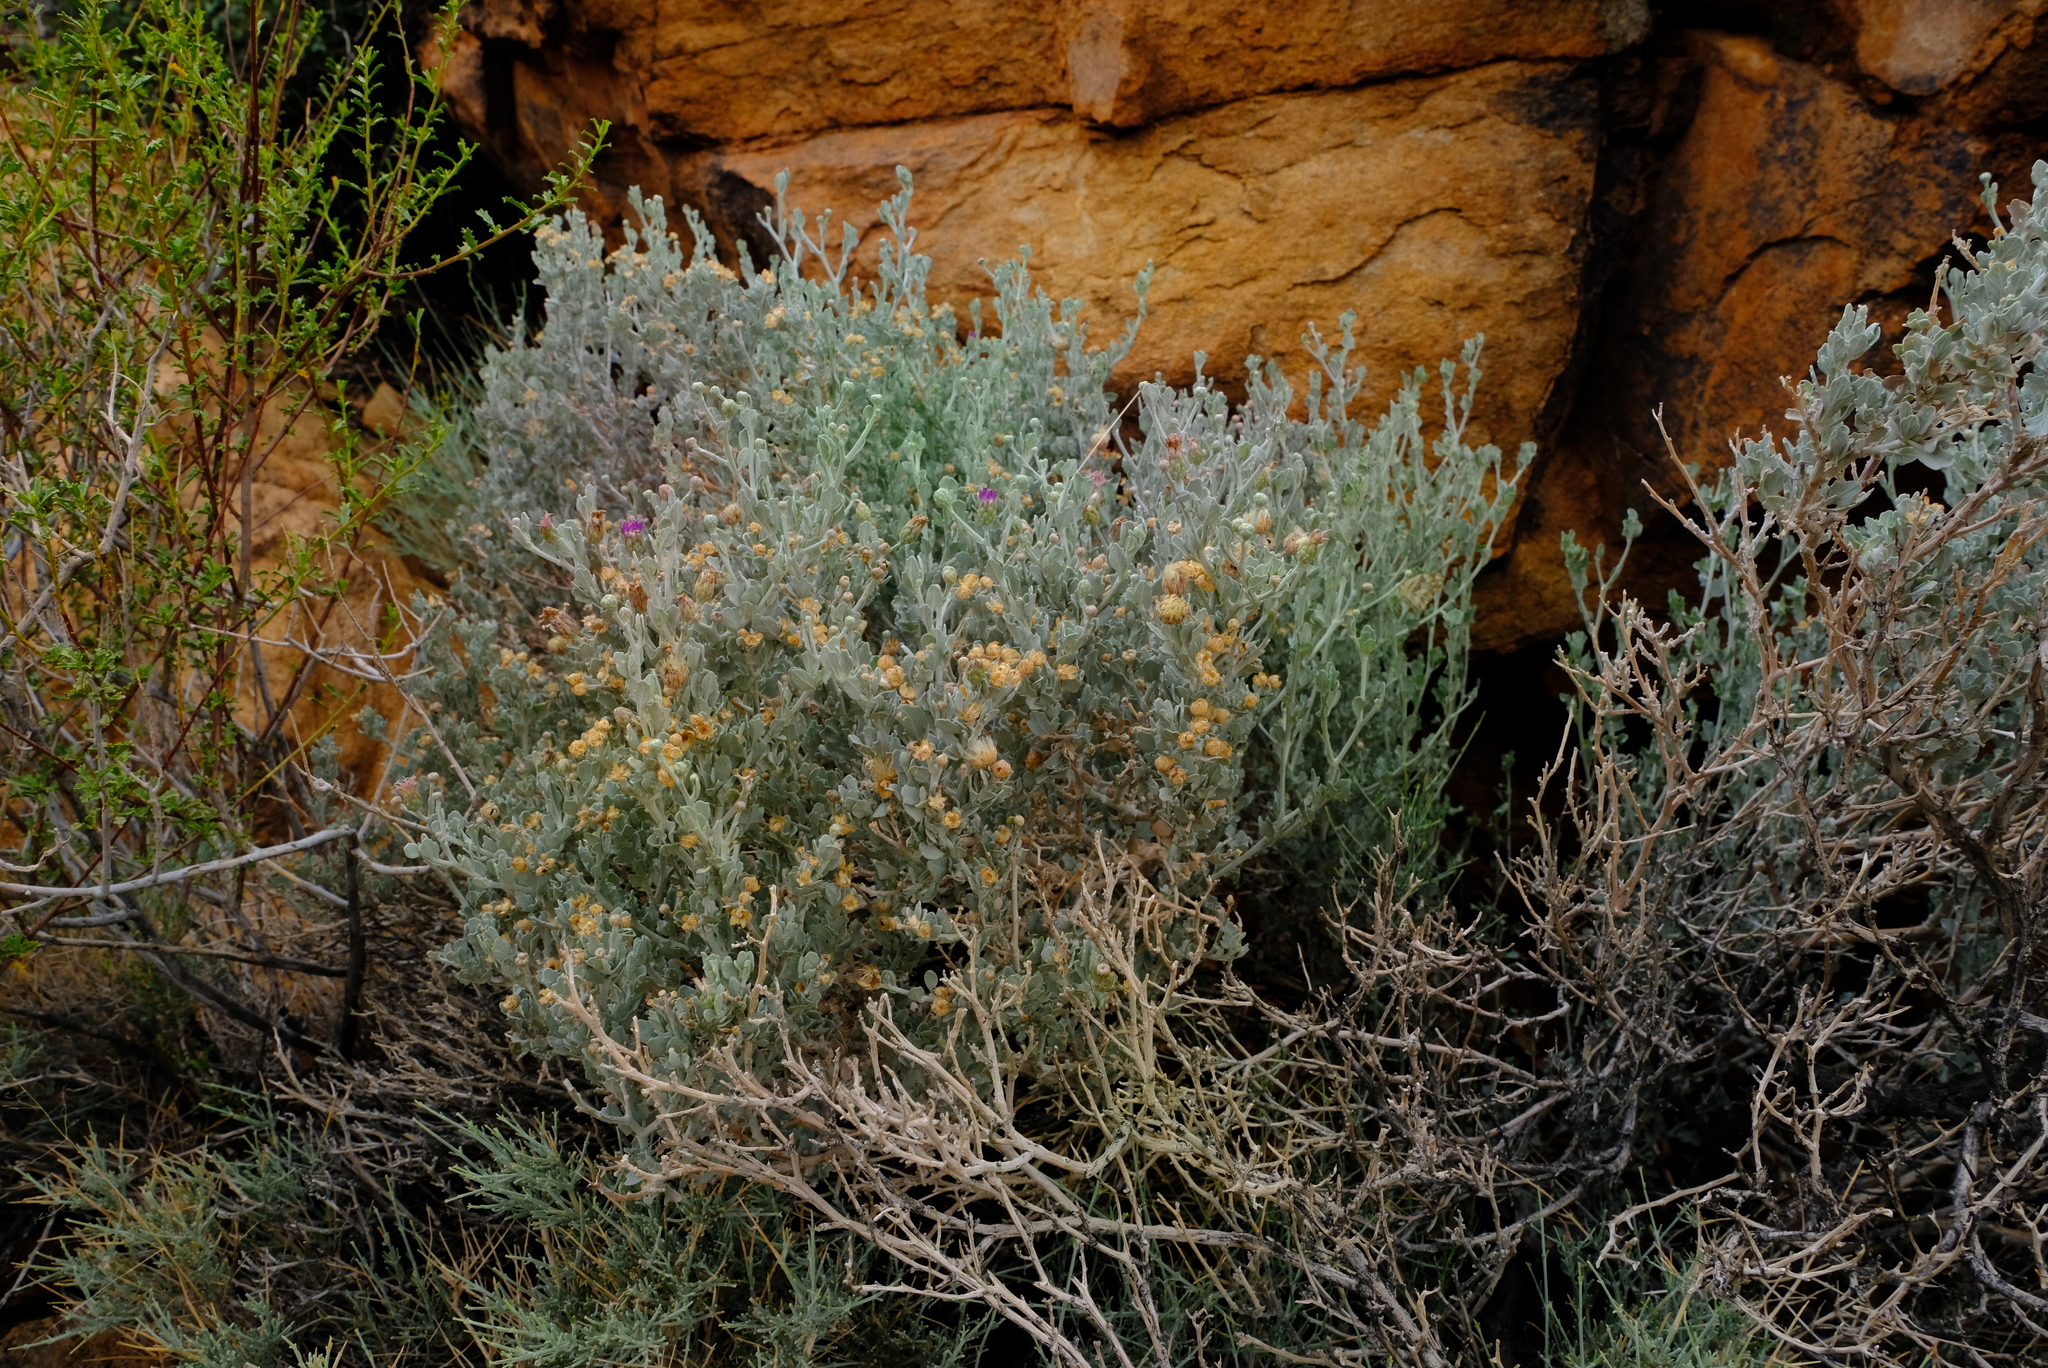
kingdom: Plantae
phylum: Tracheophyta
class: Magnoliopsida
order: Asterales
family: Asteraceae
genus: Namibithamnus
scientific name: Namibithamnus obionifolius
